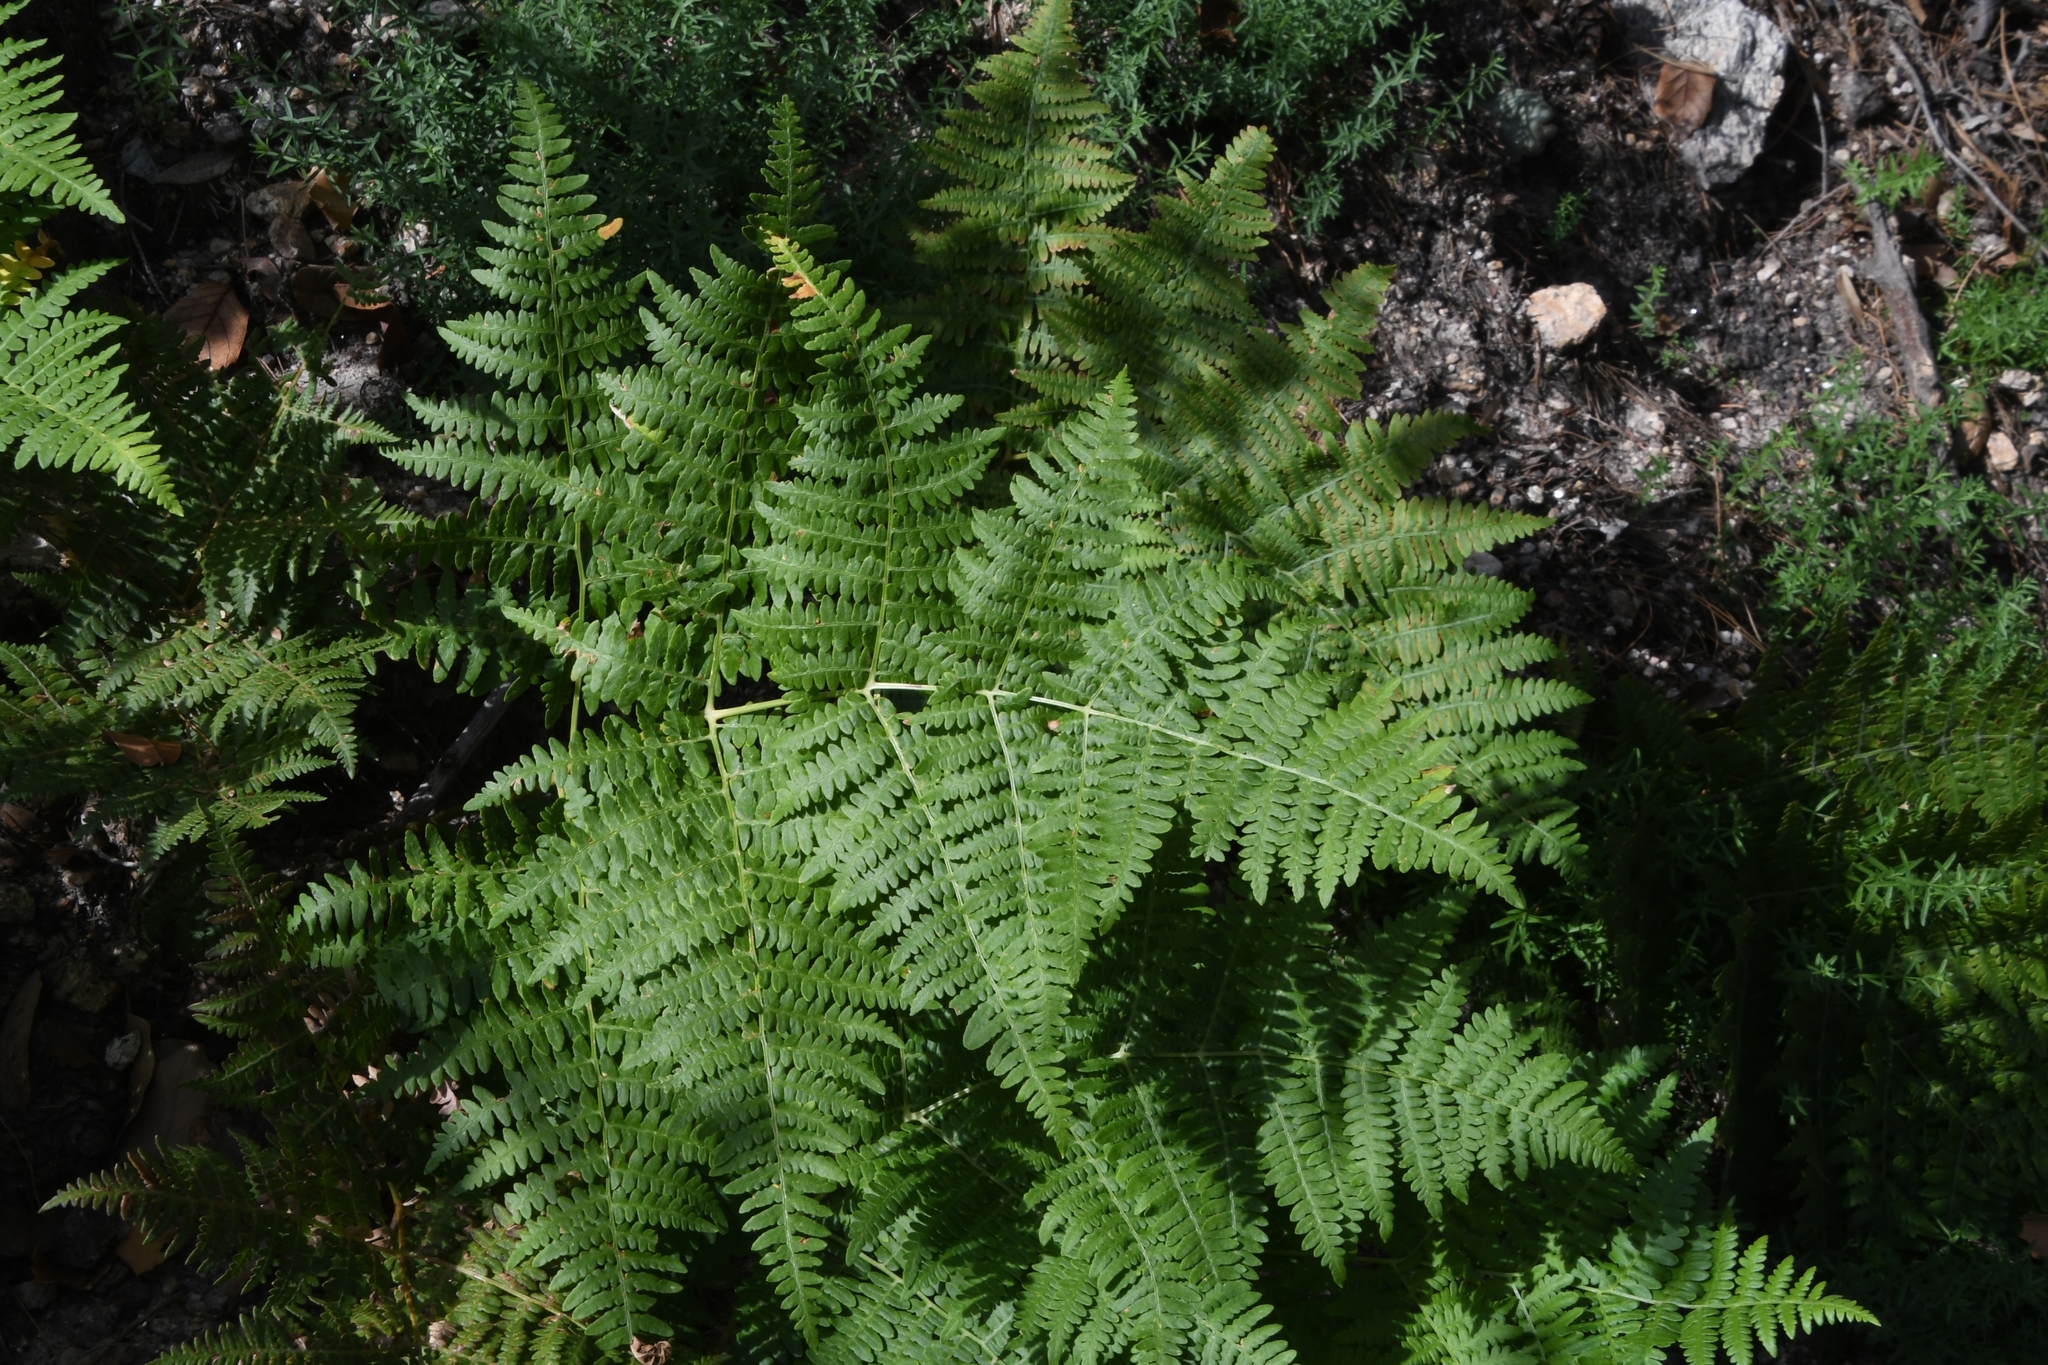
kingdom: Plantae
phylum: Tracheophyta
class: Polypodiopsida
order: Polypodiales
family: Dennstaedtiaceae
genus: Pteridium
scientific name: Pteridium aquilinum
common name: Bracken
